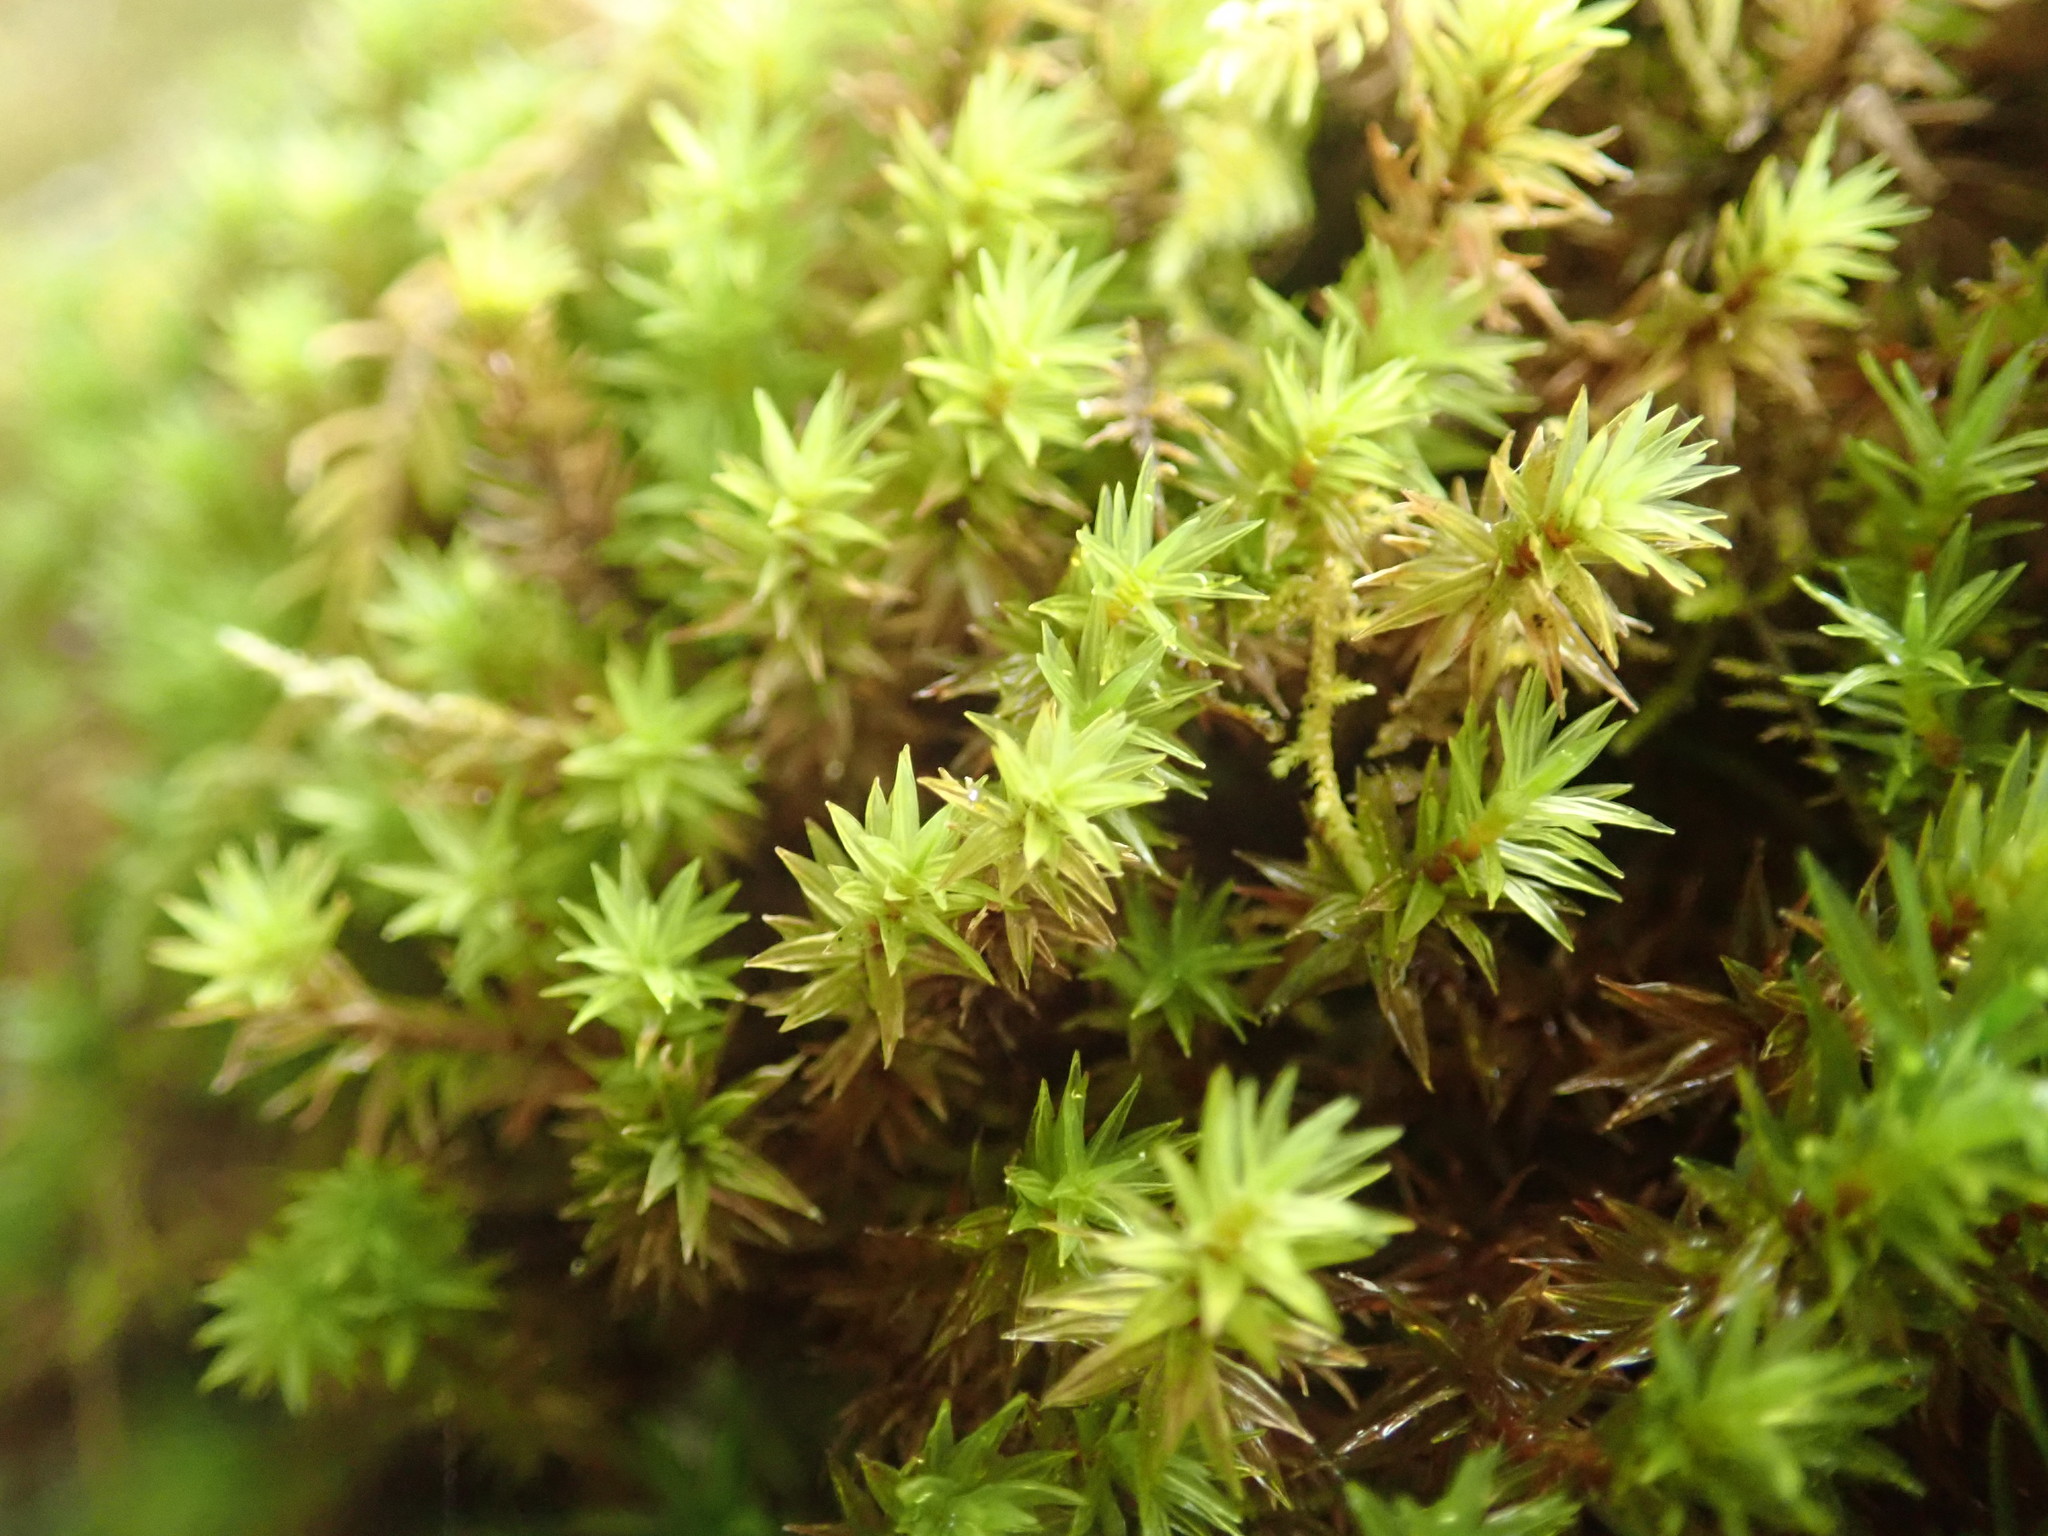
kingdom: Plantae
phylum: Bryophyta
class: Bryopsida
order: Timmiales
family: Timmiaceae
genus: Timmia
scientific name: Timmia austriaca
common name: Austrian timmia
